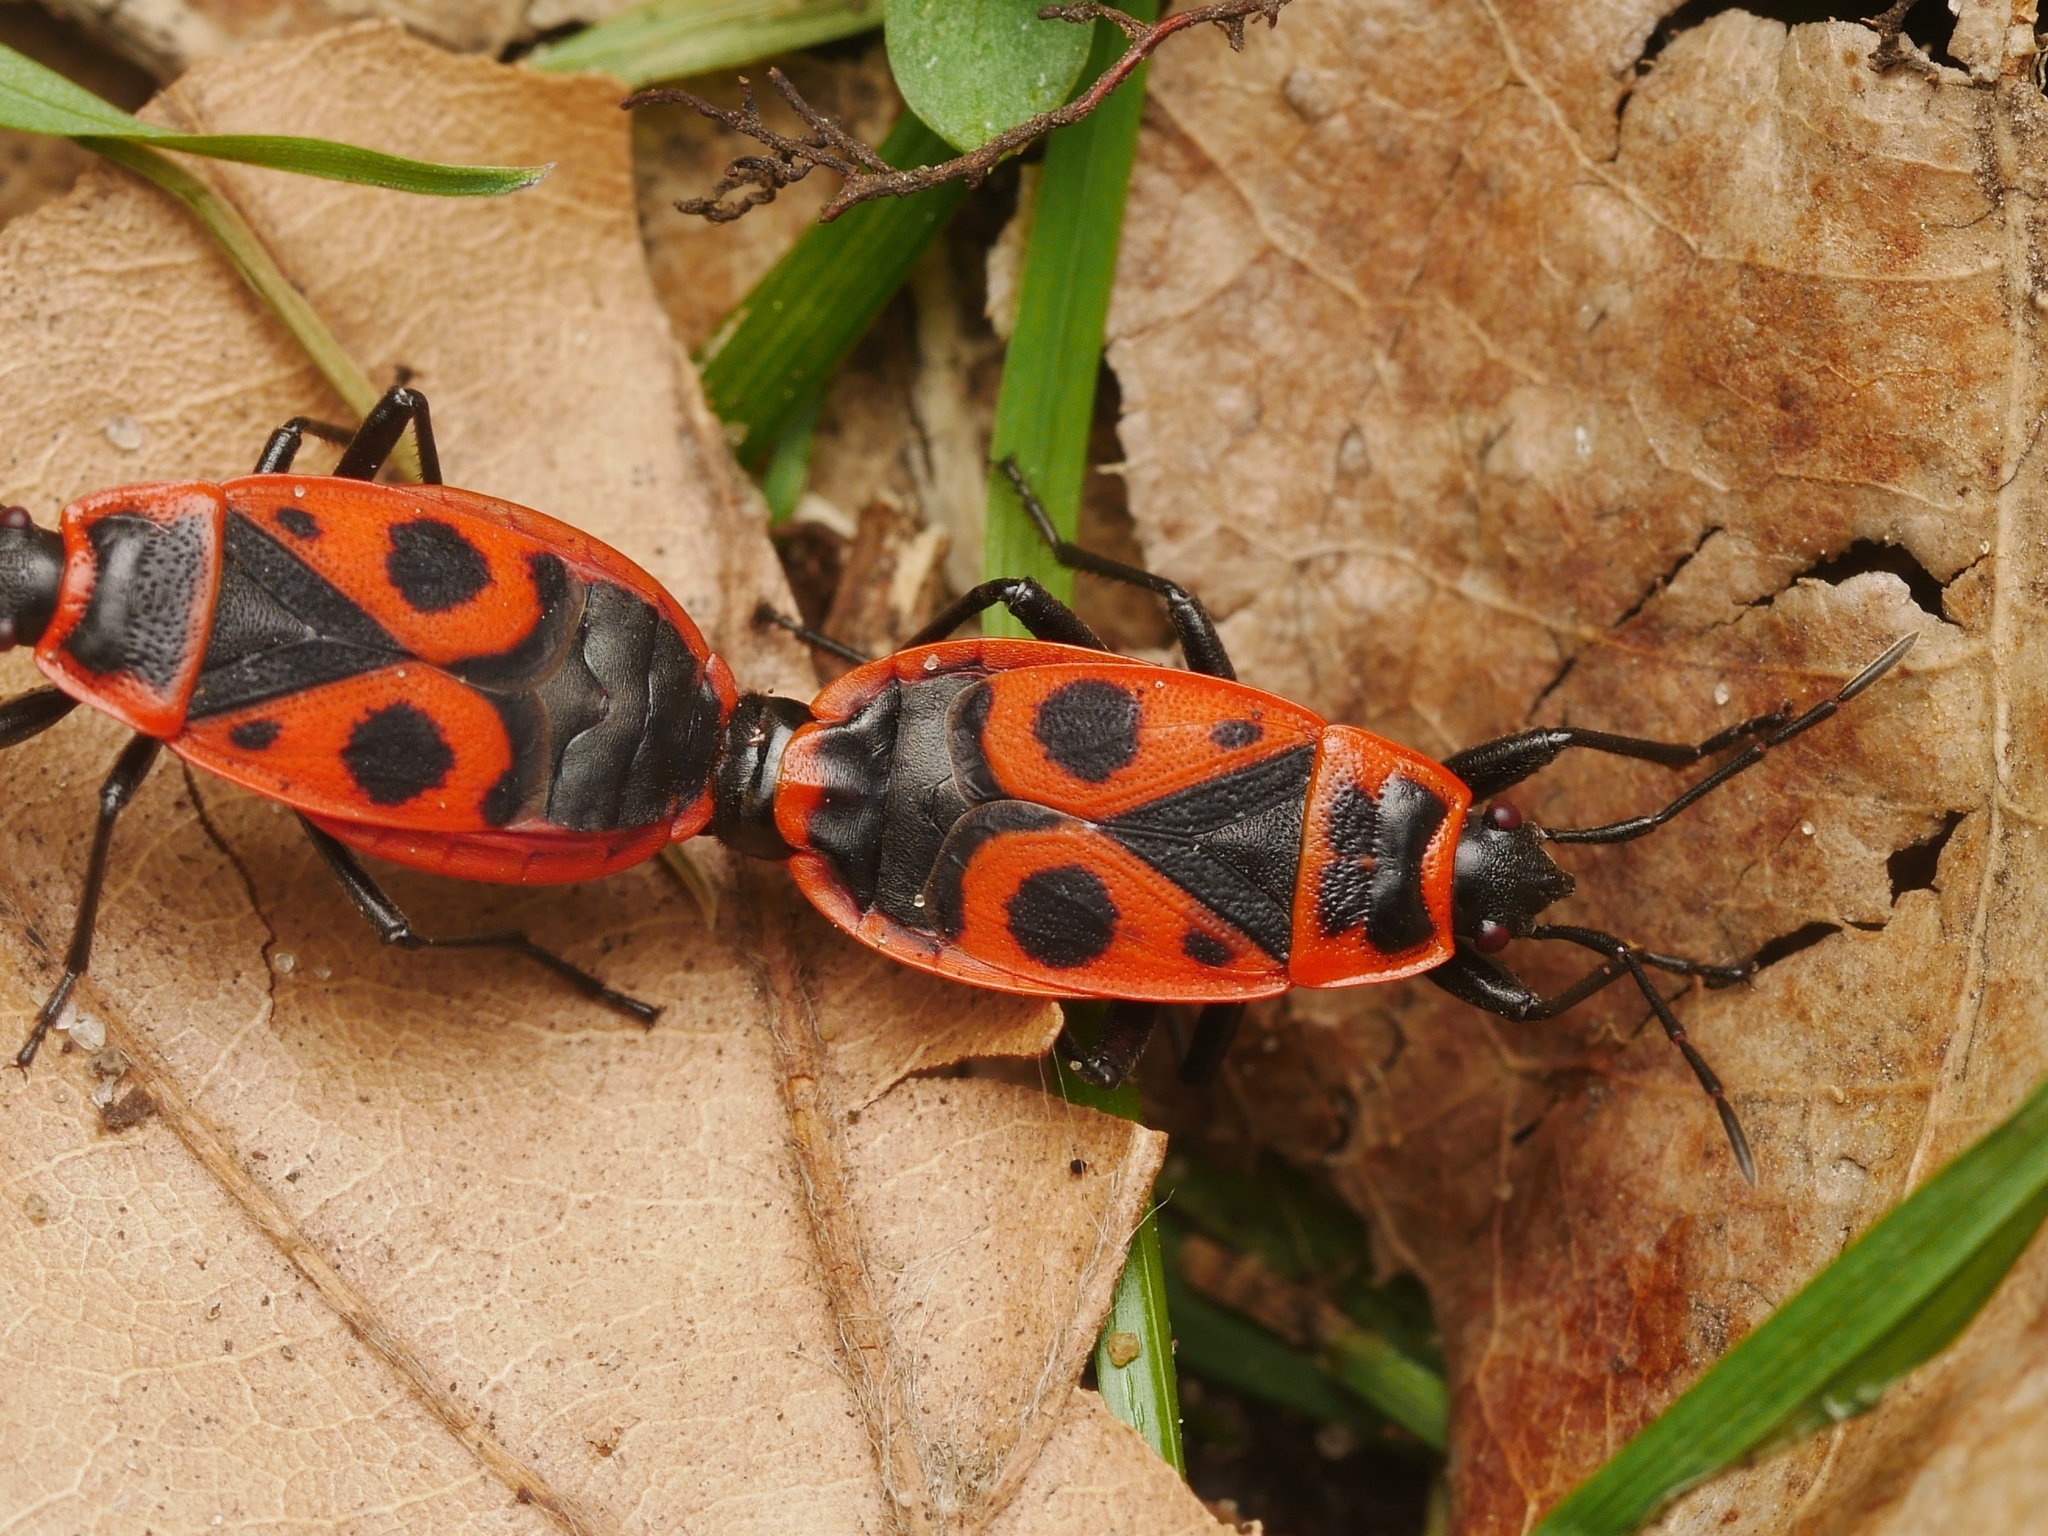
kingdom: Animalia
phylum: Arthropoda
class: Insecta
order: Hemiptera
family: Pyrrhocoridae
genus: Pyrrhocoris
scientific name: Pyrrhocoris apterus
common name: Firebug
